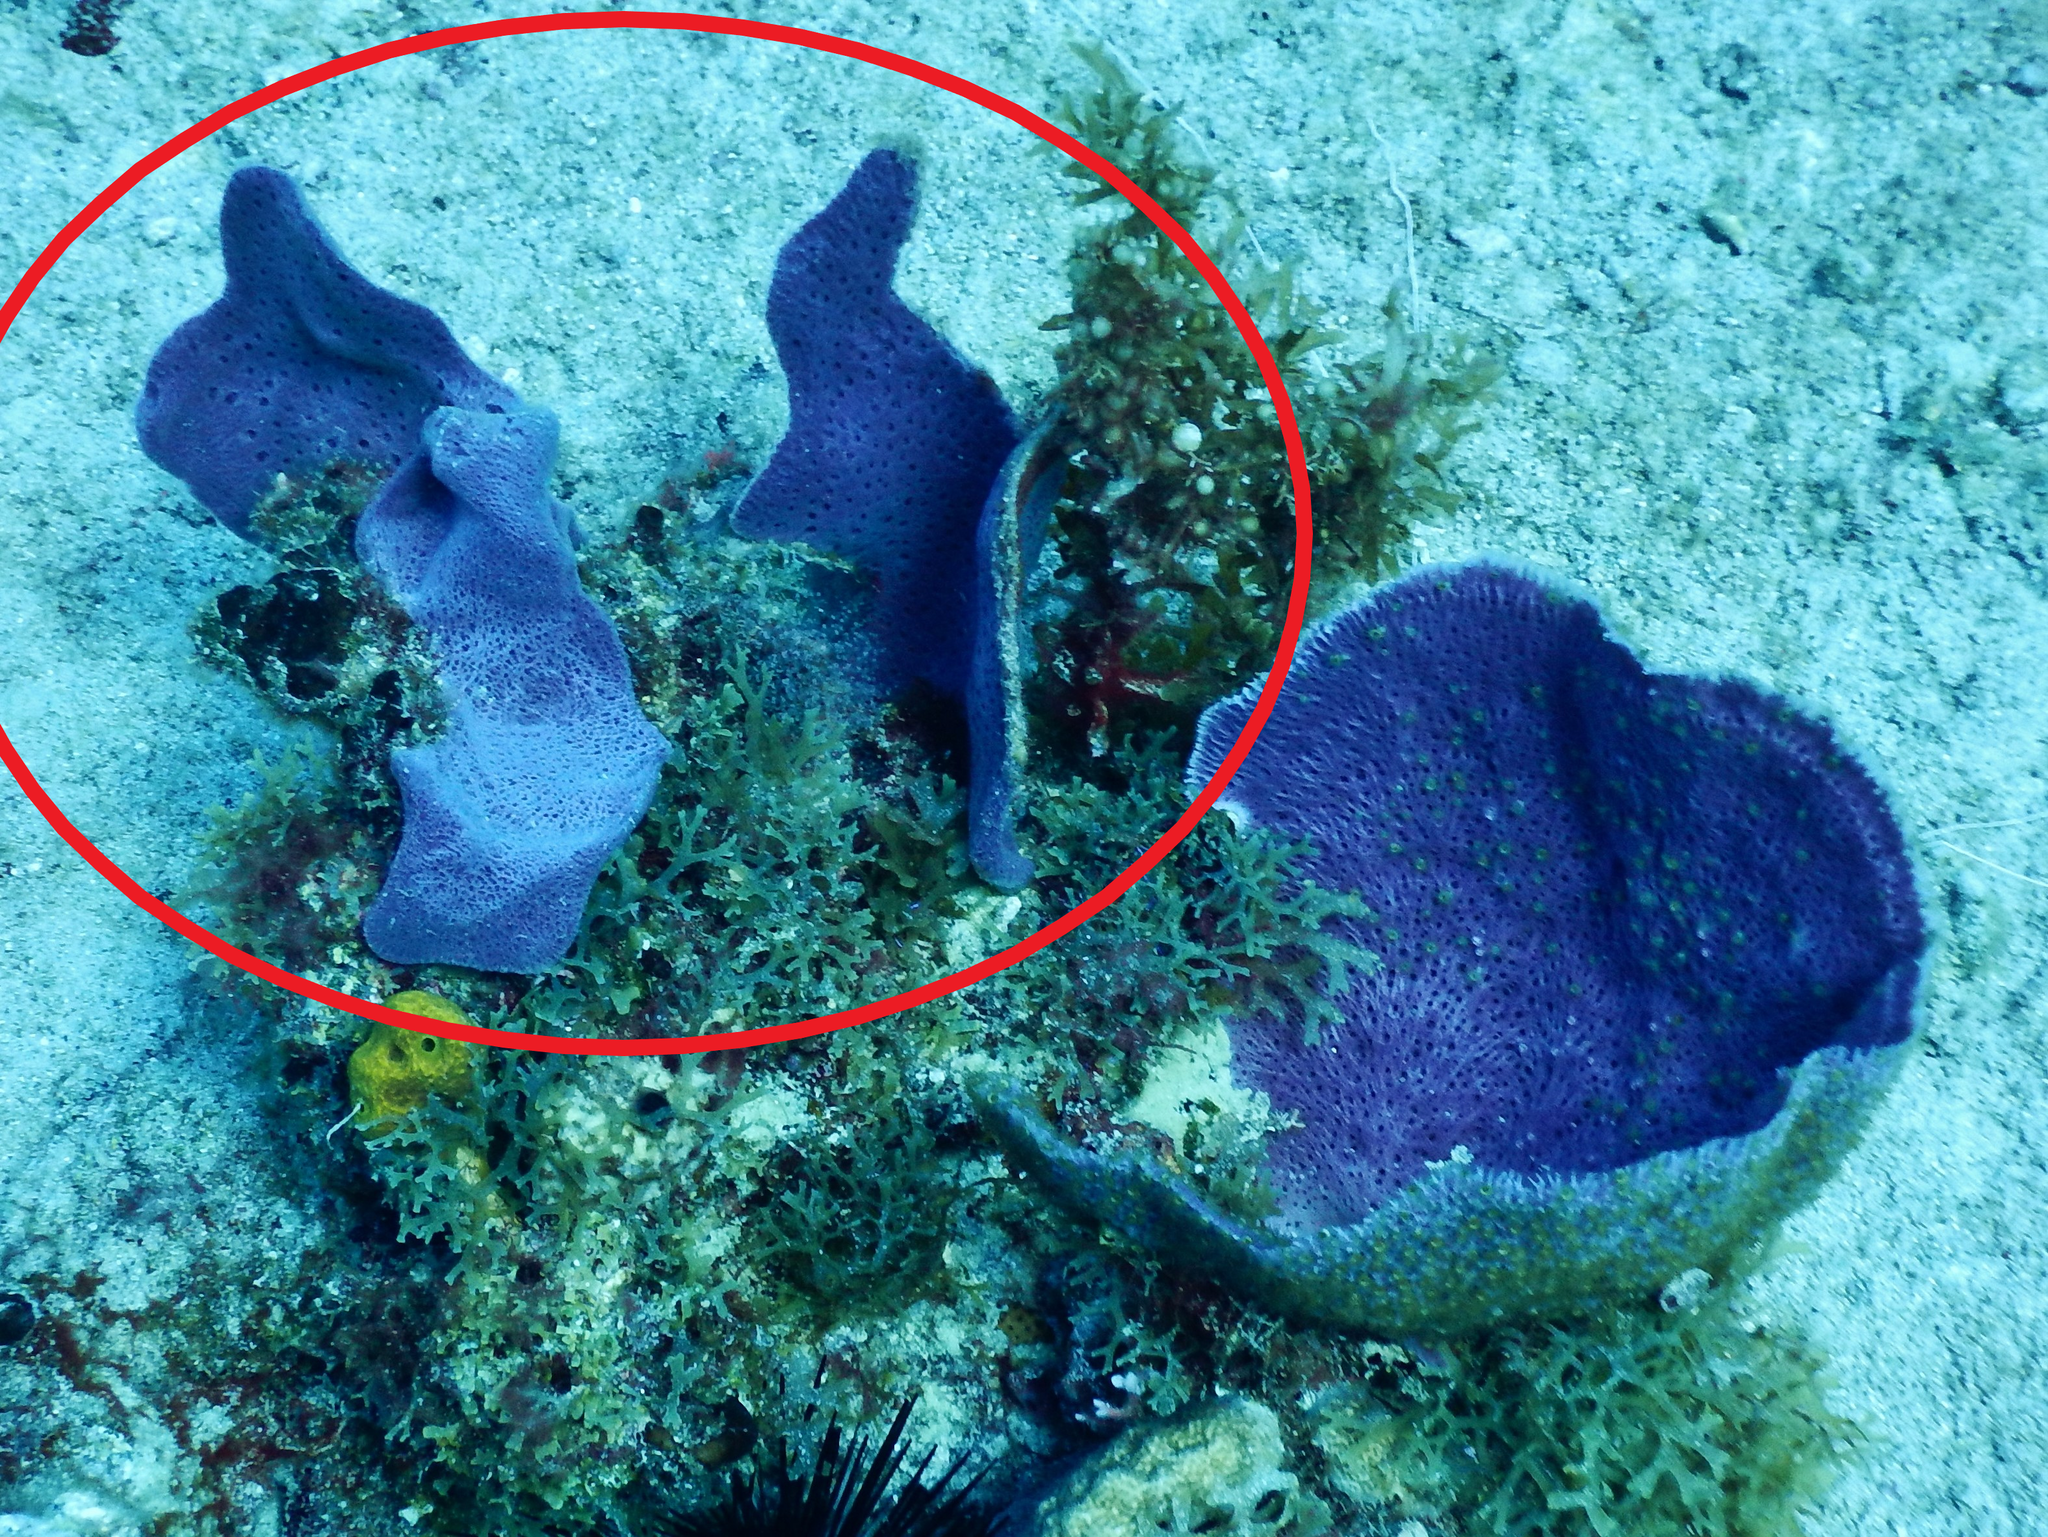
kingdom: Animalia
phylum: Porifera
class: Demospongiae
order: Haplosclerida
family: Niphatidae
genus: Amphimedon
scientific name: Amphimedon caribica
